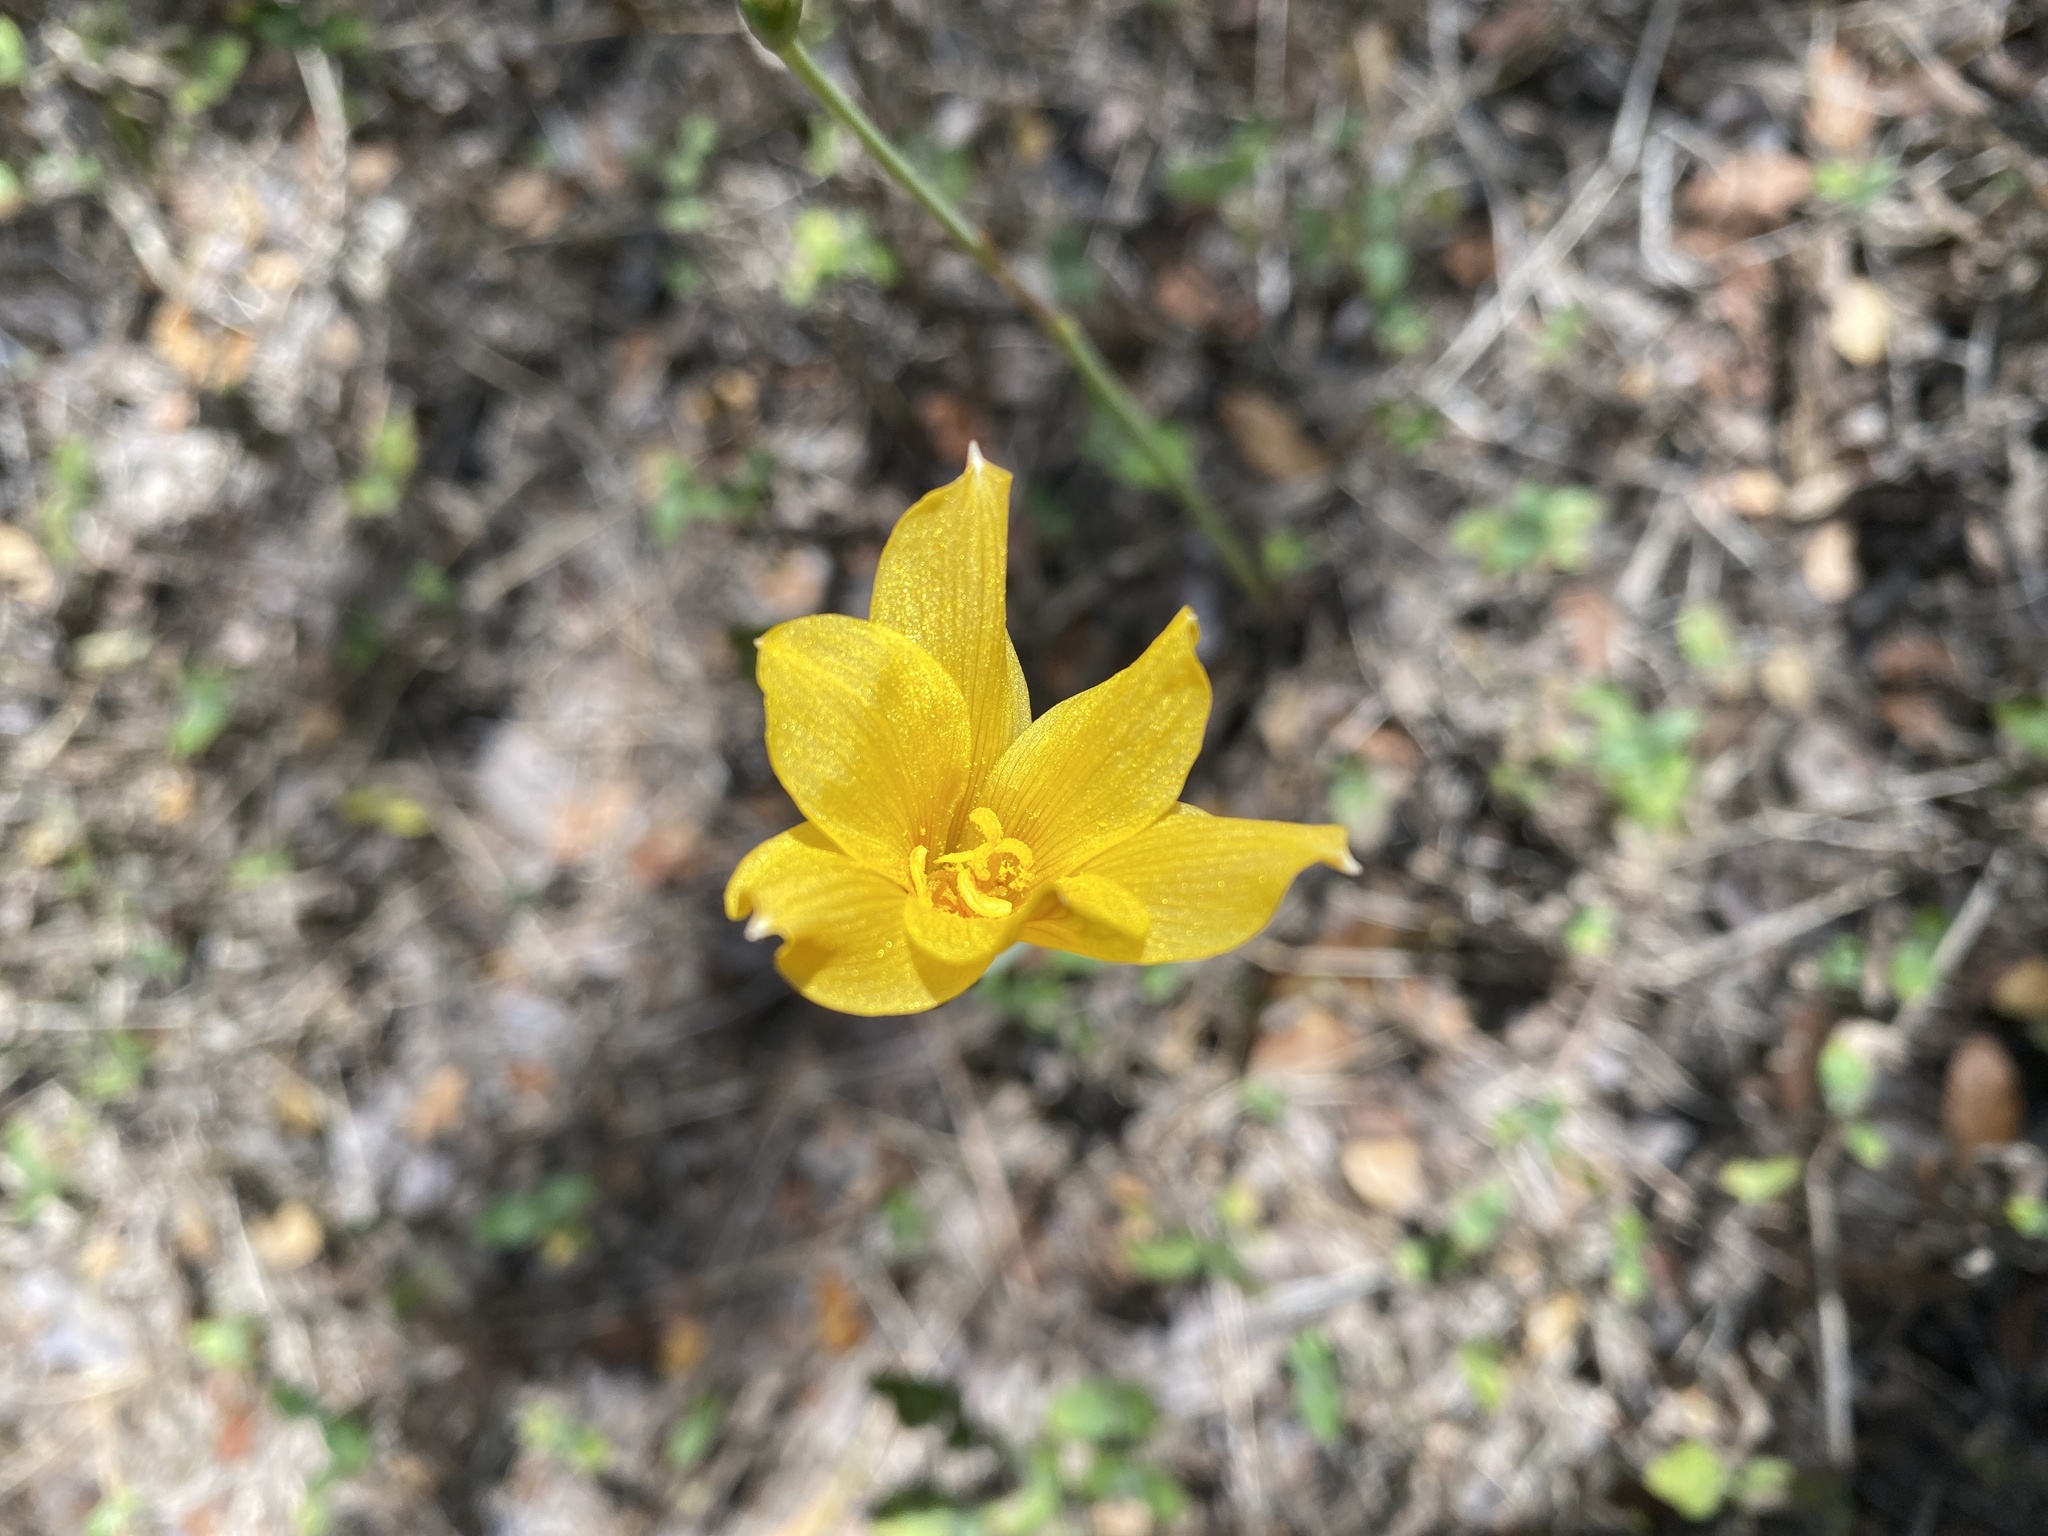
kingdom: Plantae
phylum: Tracheophyta
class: Liliopsida
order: Asparagales
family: Amaryllidaceae
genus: Zephyranthes
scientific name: Zephyranthes tubispatha
